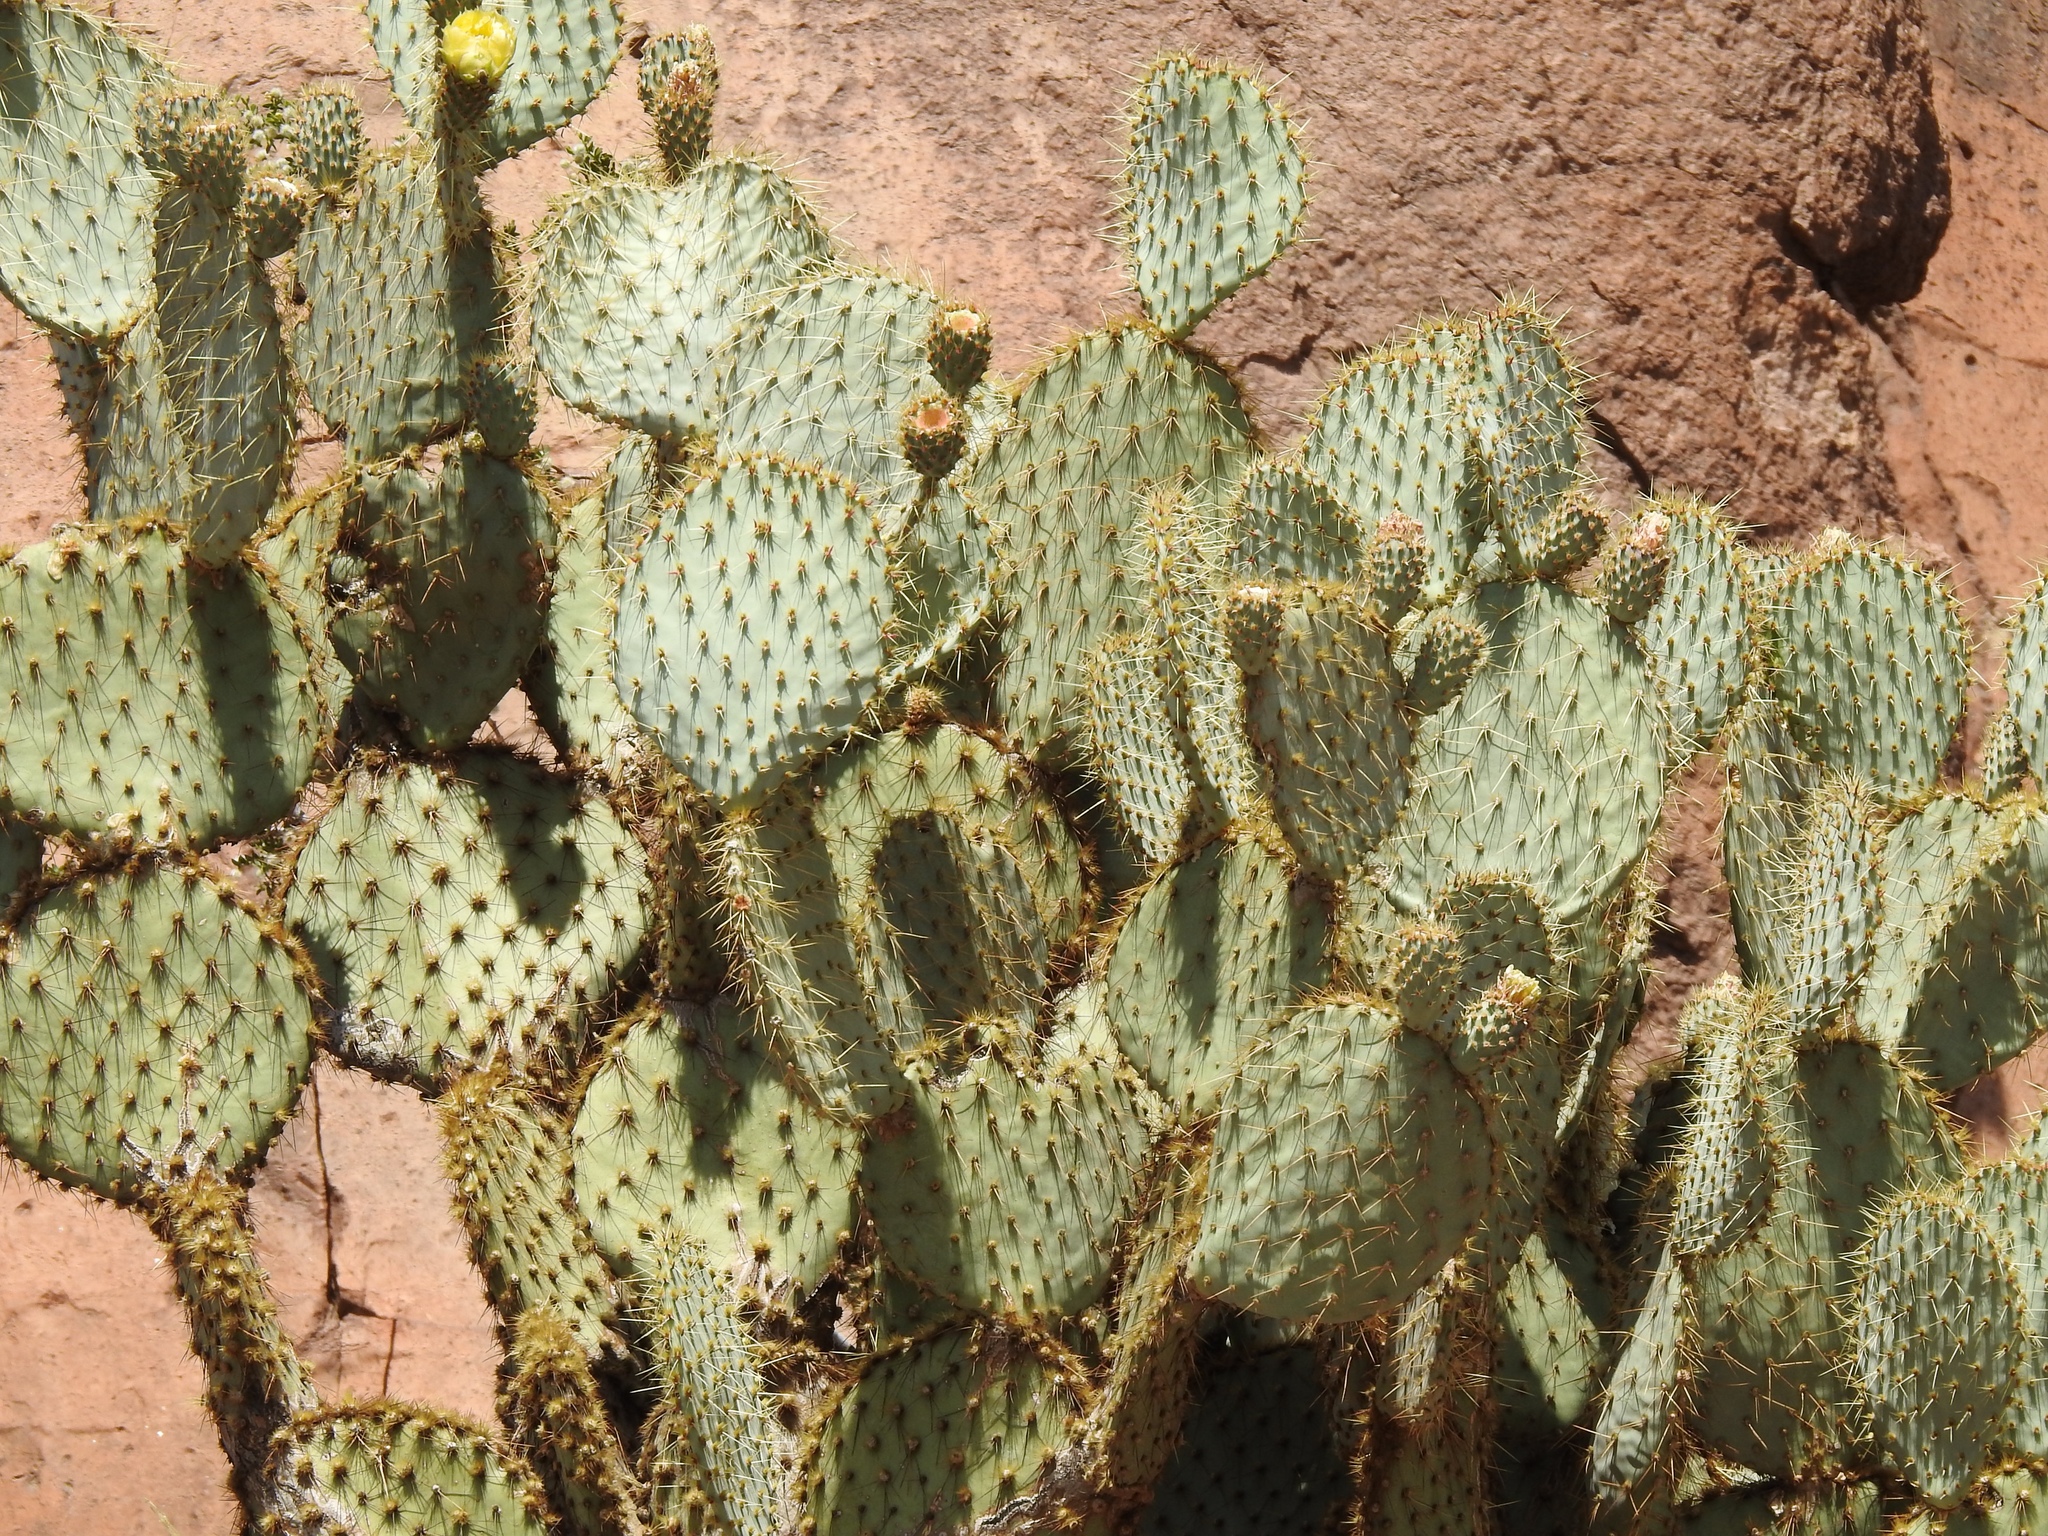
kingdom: Plantae
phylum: Tracheophyta
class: Magnoliopsida
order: Caryophyllales
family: Cactaceae
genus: Opuntia
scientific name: Opuntia chlorotica
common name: Dollar-joint prickly-pear
